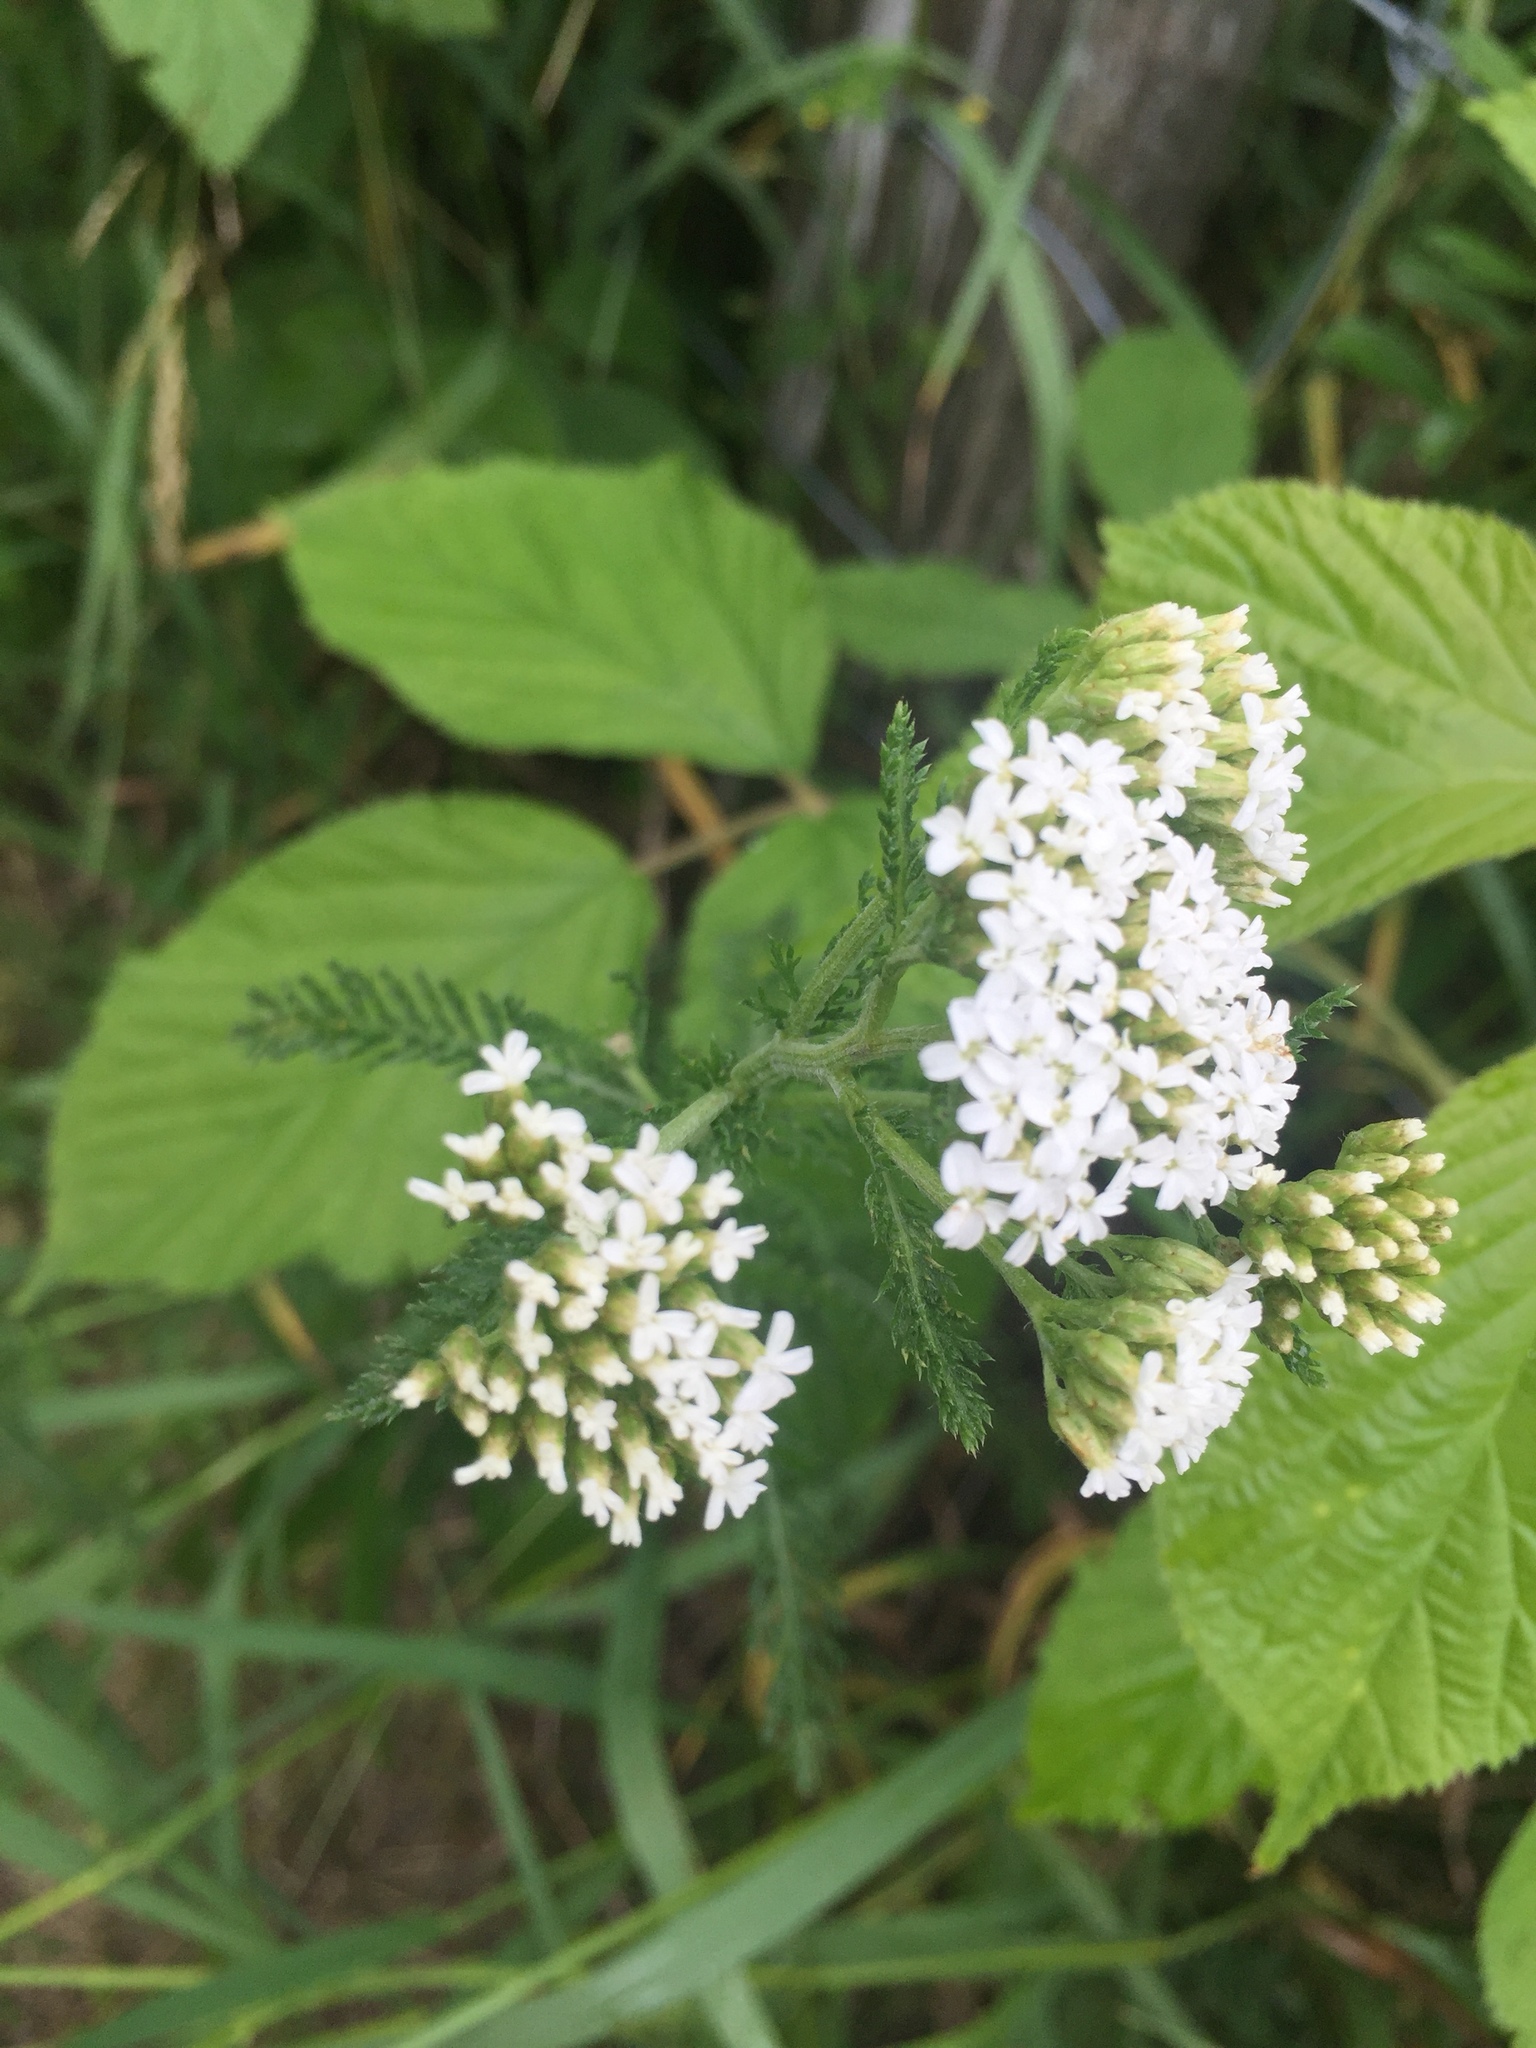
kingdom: Plantae
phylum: Tracheophyta
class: Magnoliopsida
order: Asterales
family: Asteraceae
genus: Achillea
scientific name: Achillea millefolium
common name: Yarrow
